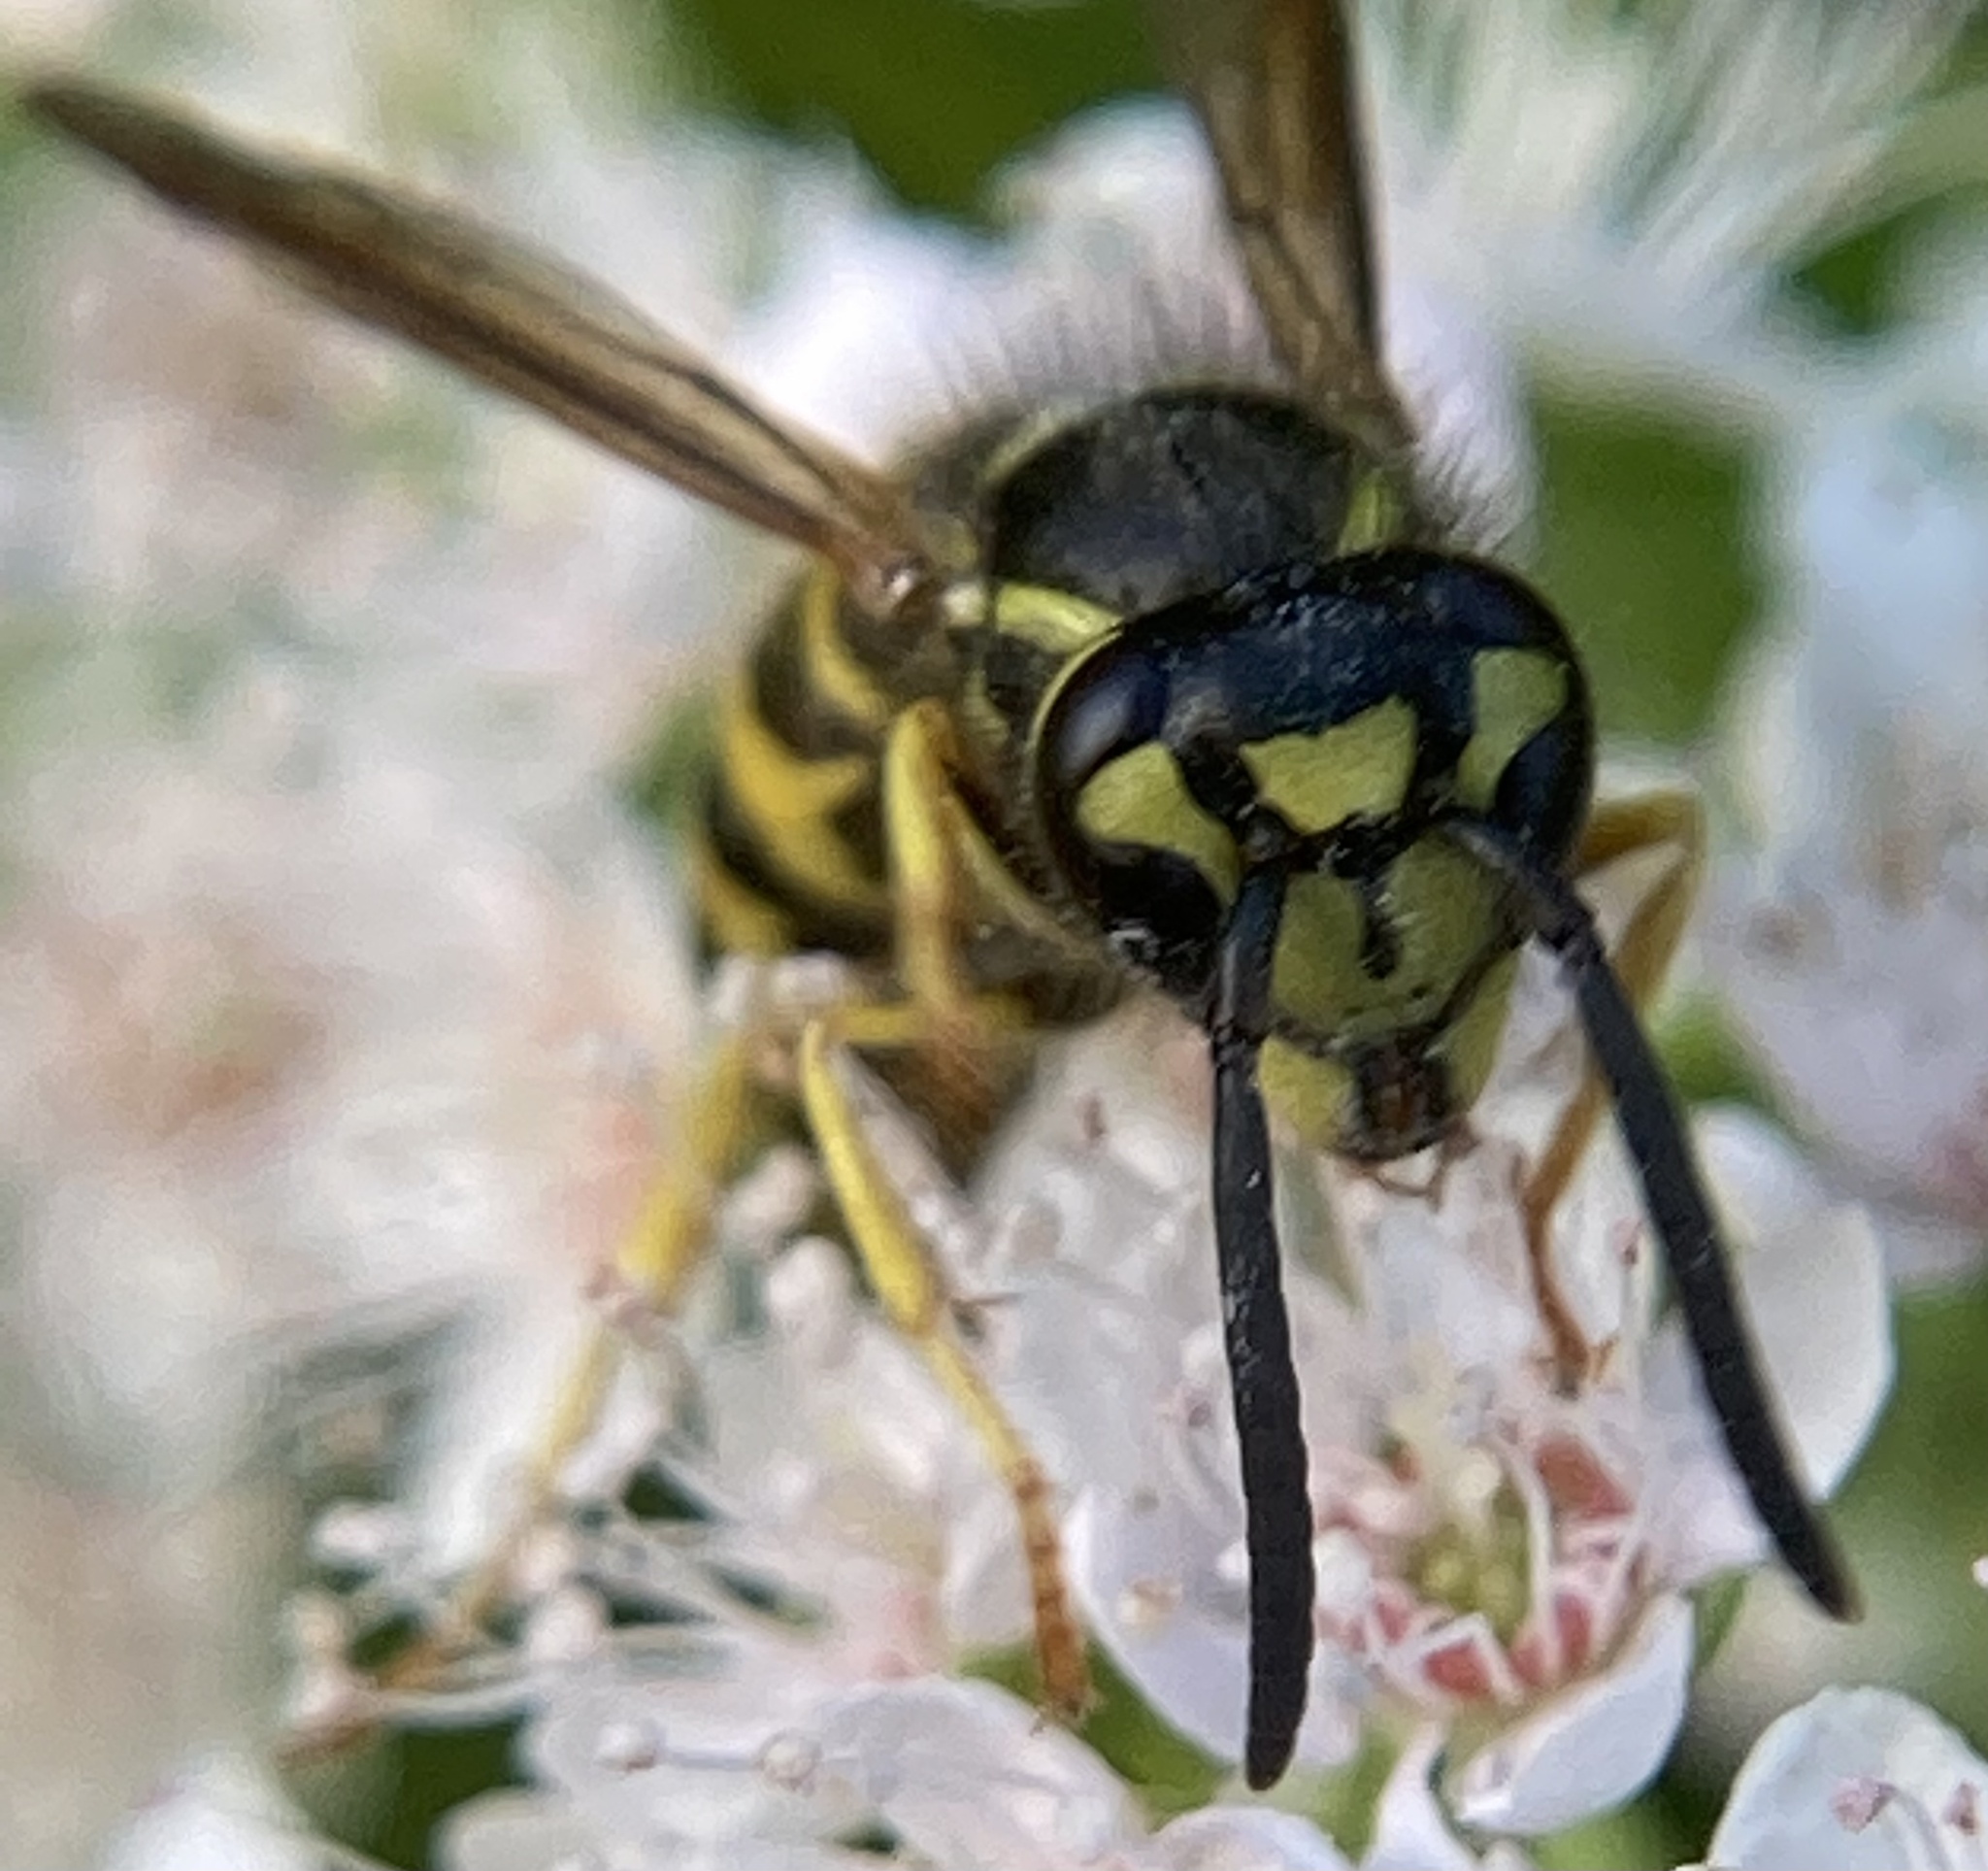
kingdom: Animalia
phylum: Arthropoda
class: Insecta
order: Hymenoptera
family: Vespidae
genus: Vespula
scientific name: Vespula maculifrons
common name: Eastern yellowjacket
